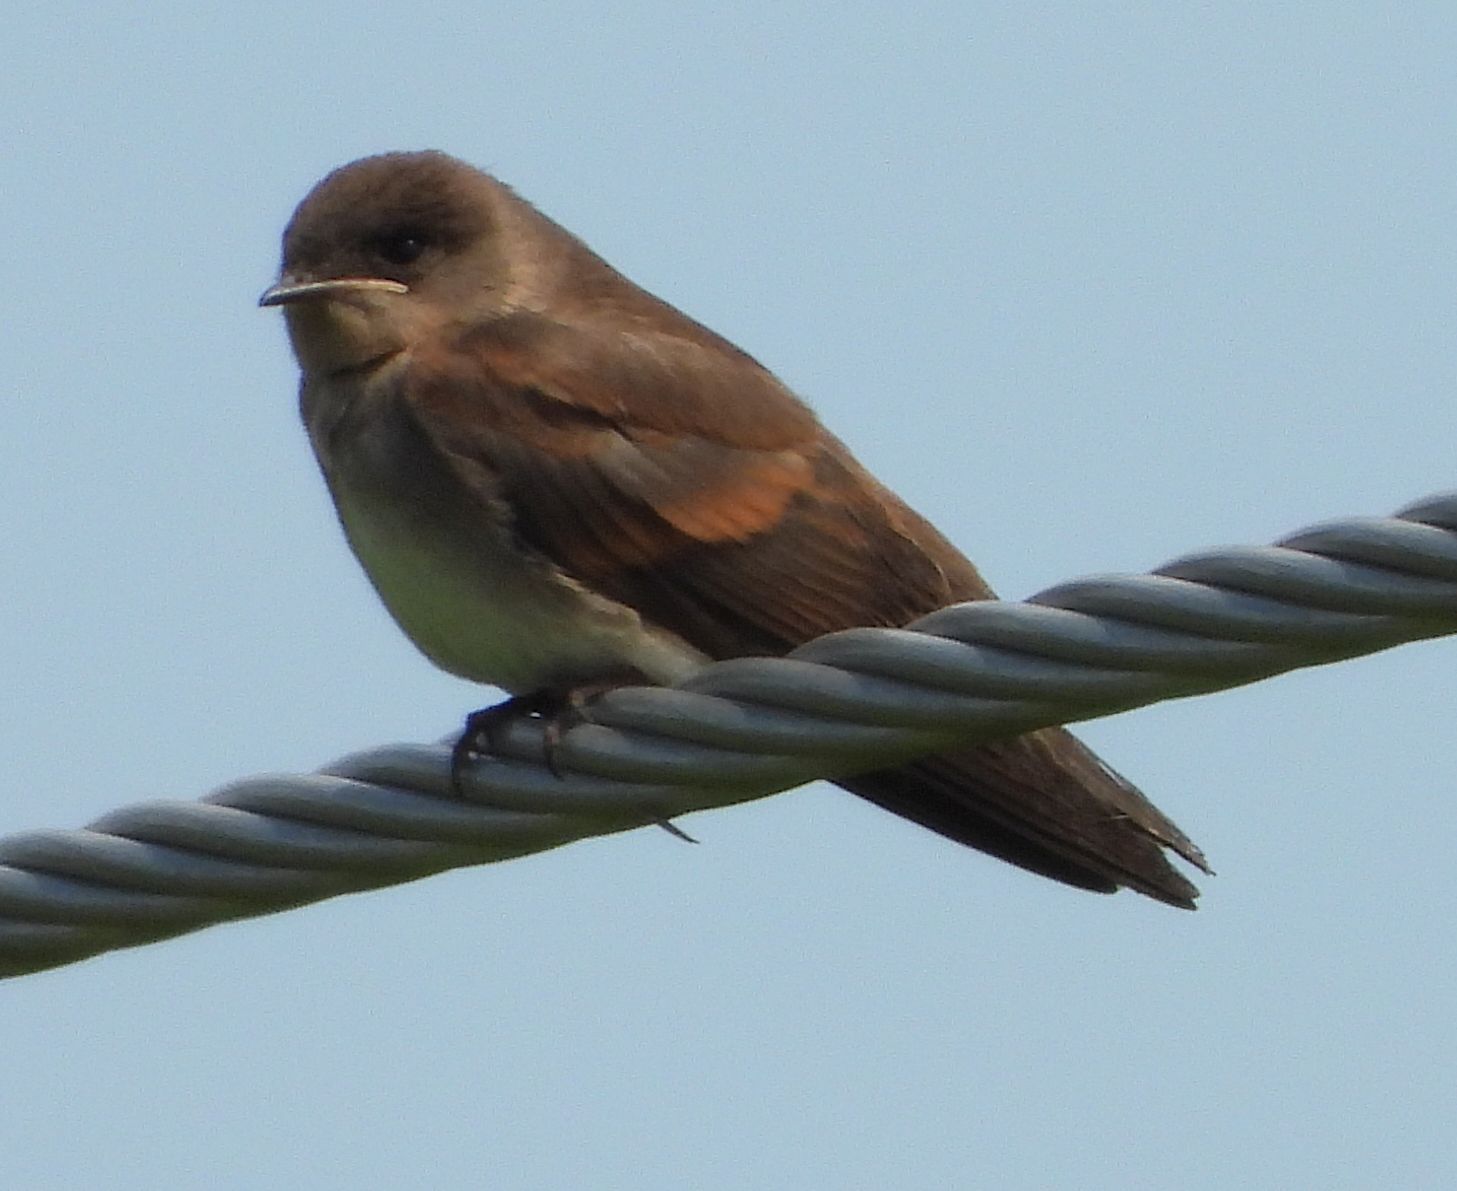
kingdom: Animalia
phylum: Chordata
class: Aves
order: Passeriformes
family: Hirundinidae
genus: Stelgidopteryx
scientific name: Stelgidopteryx serripennis
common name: Northern rough-winged swallow
